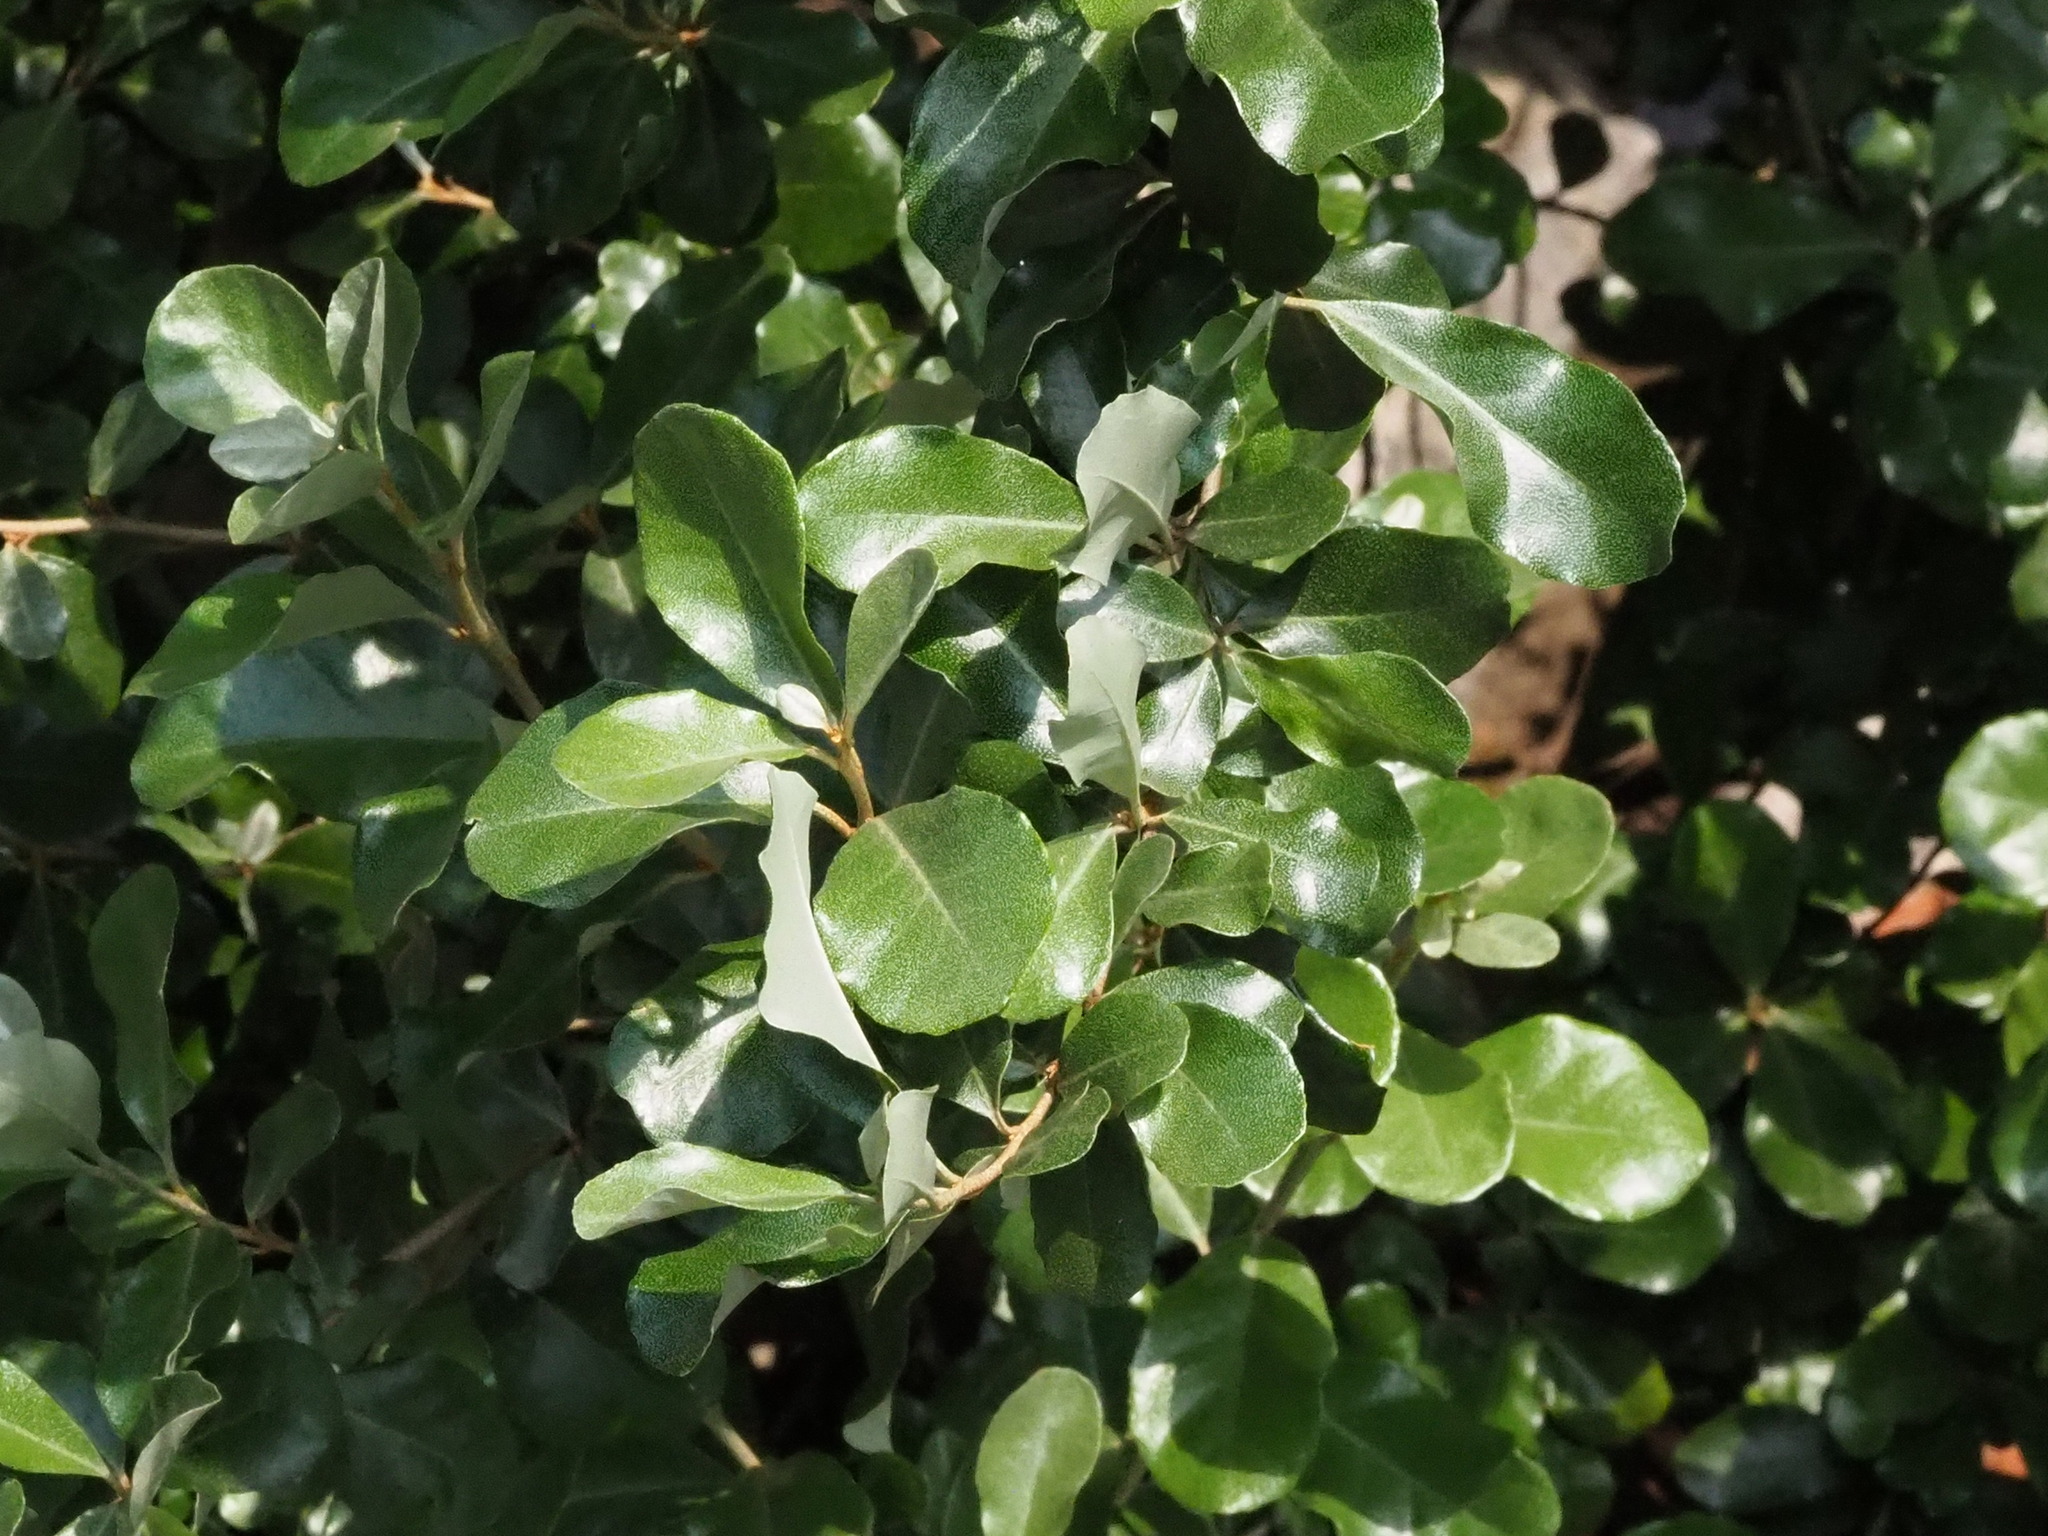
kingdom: Plantae
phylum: Tracheophyta
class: Magnoliopsida
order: Rosales
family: Elaeagnaceae
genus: Elaeagnus
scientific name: Elaeagnus oldhamii
